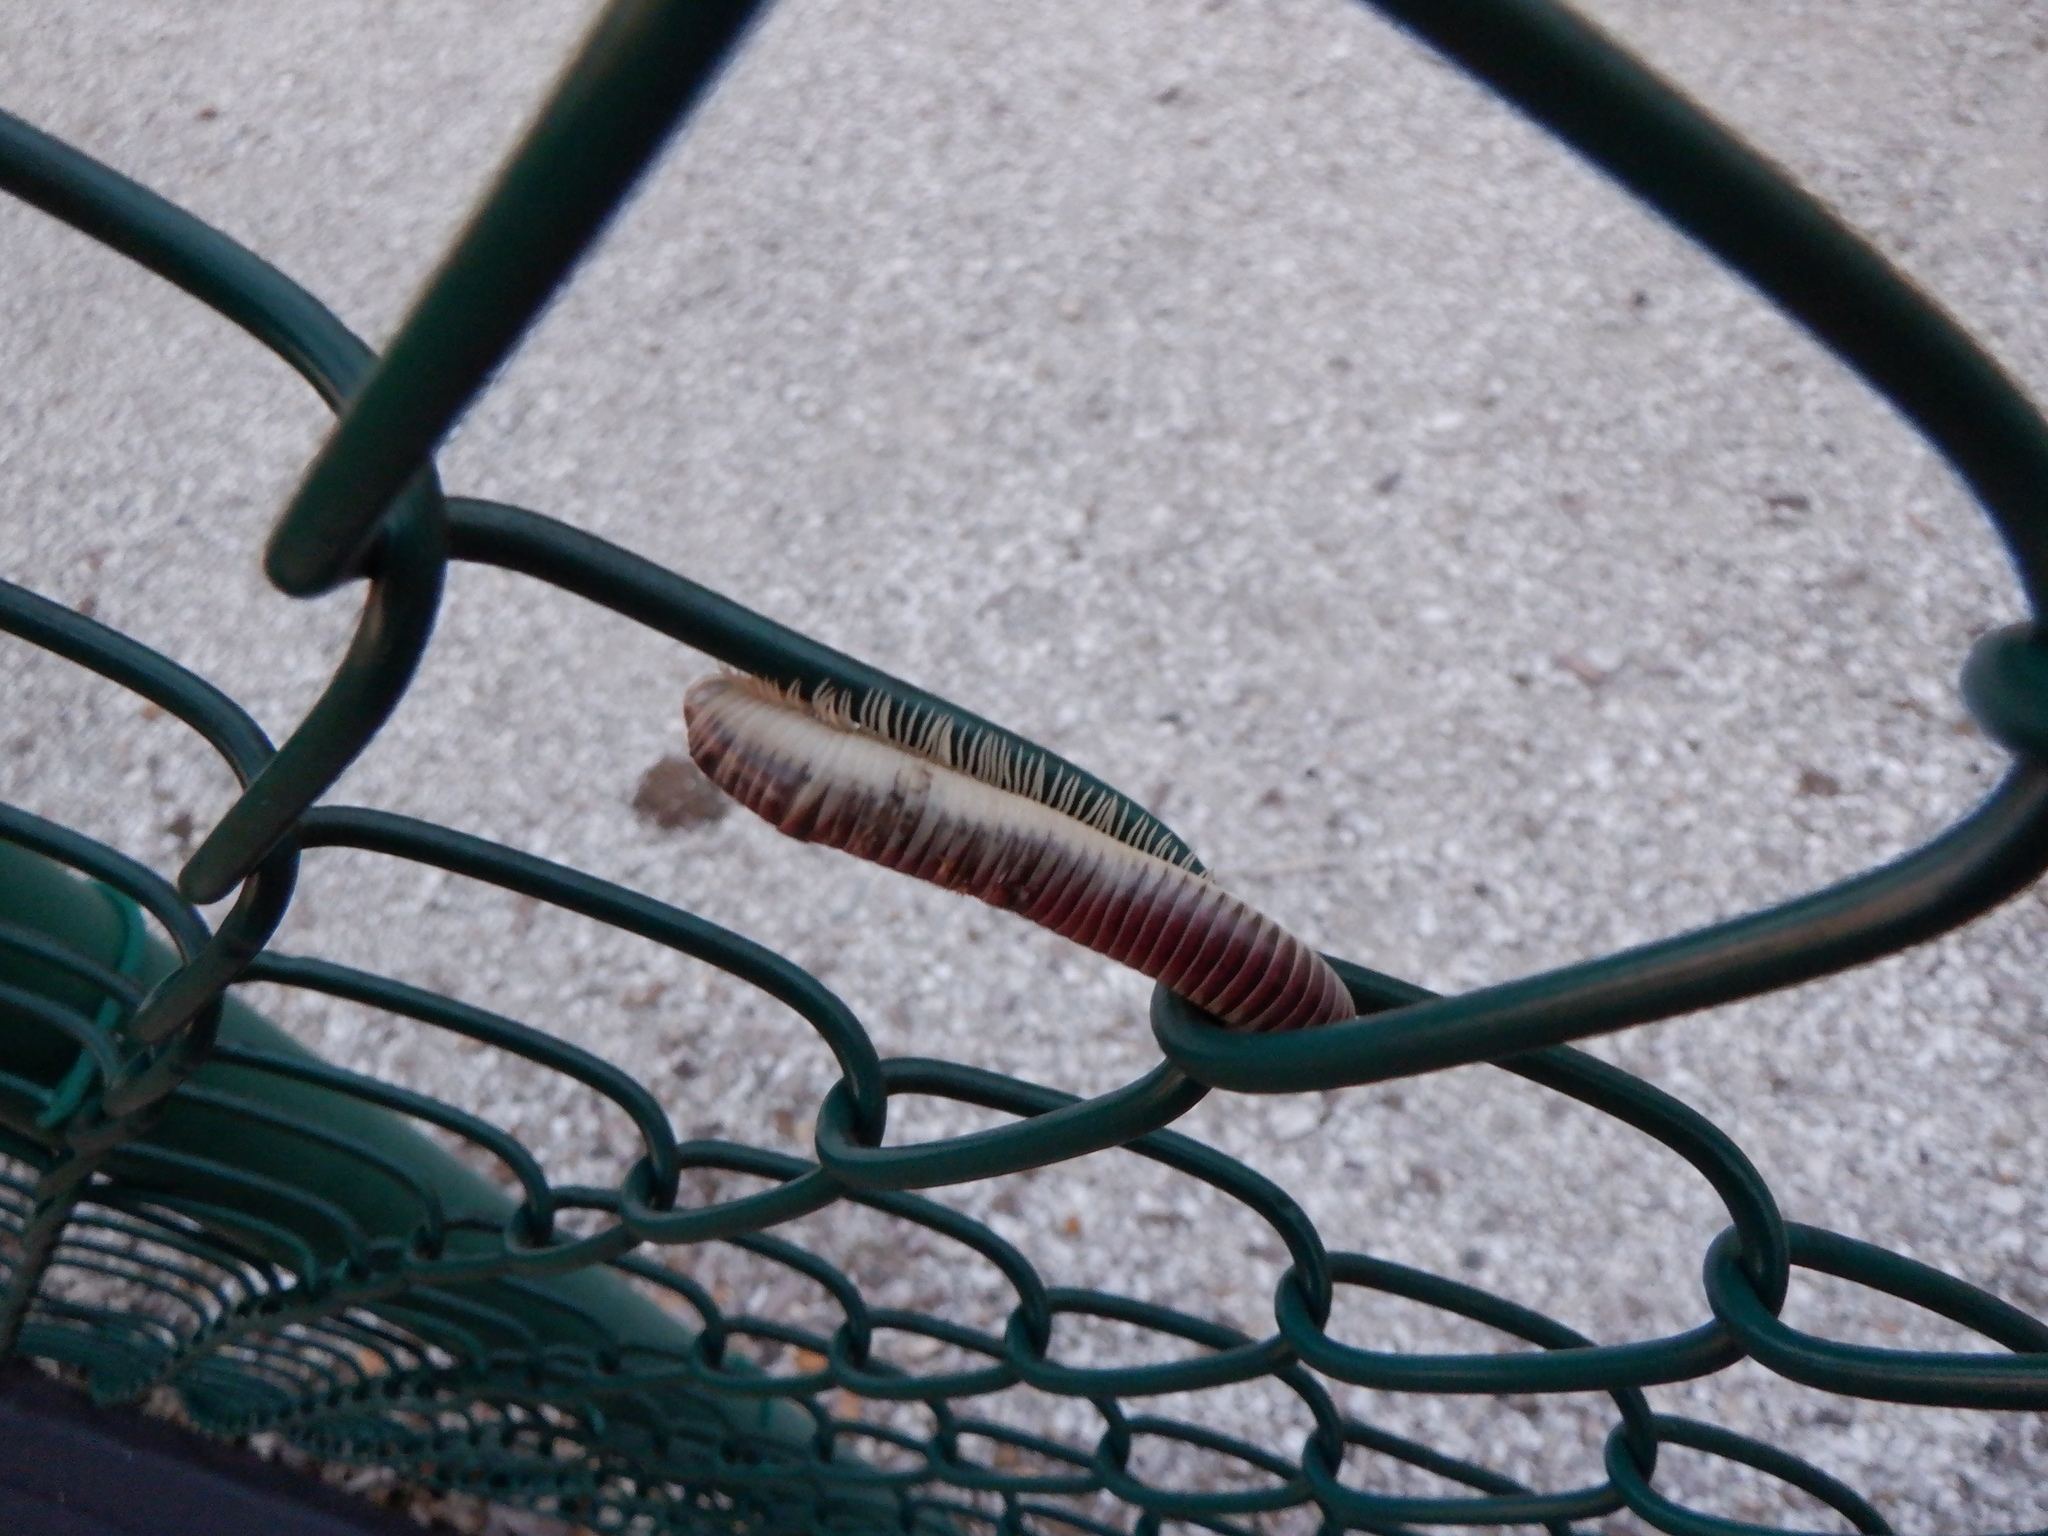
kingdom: Animalia
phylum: Arthropoda
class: Diplopoda
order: Spirobolida
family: Spirobolidae
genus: Chicobolus
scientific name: Chicobolus spinigerus
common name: Florida ivory millipede
